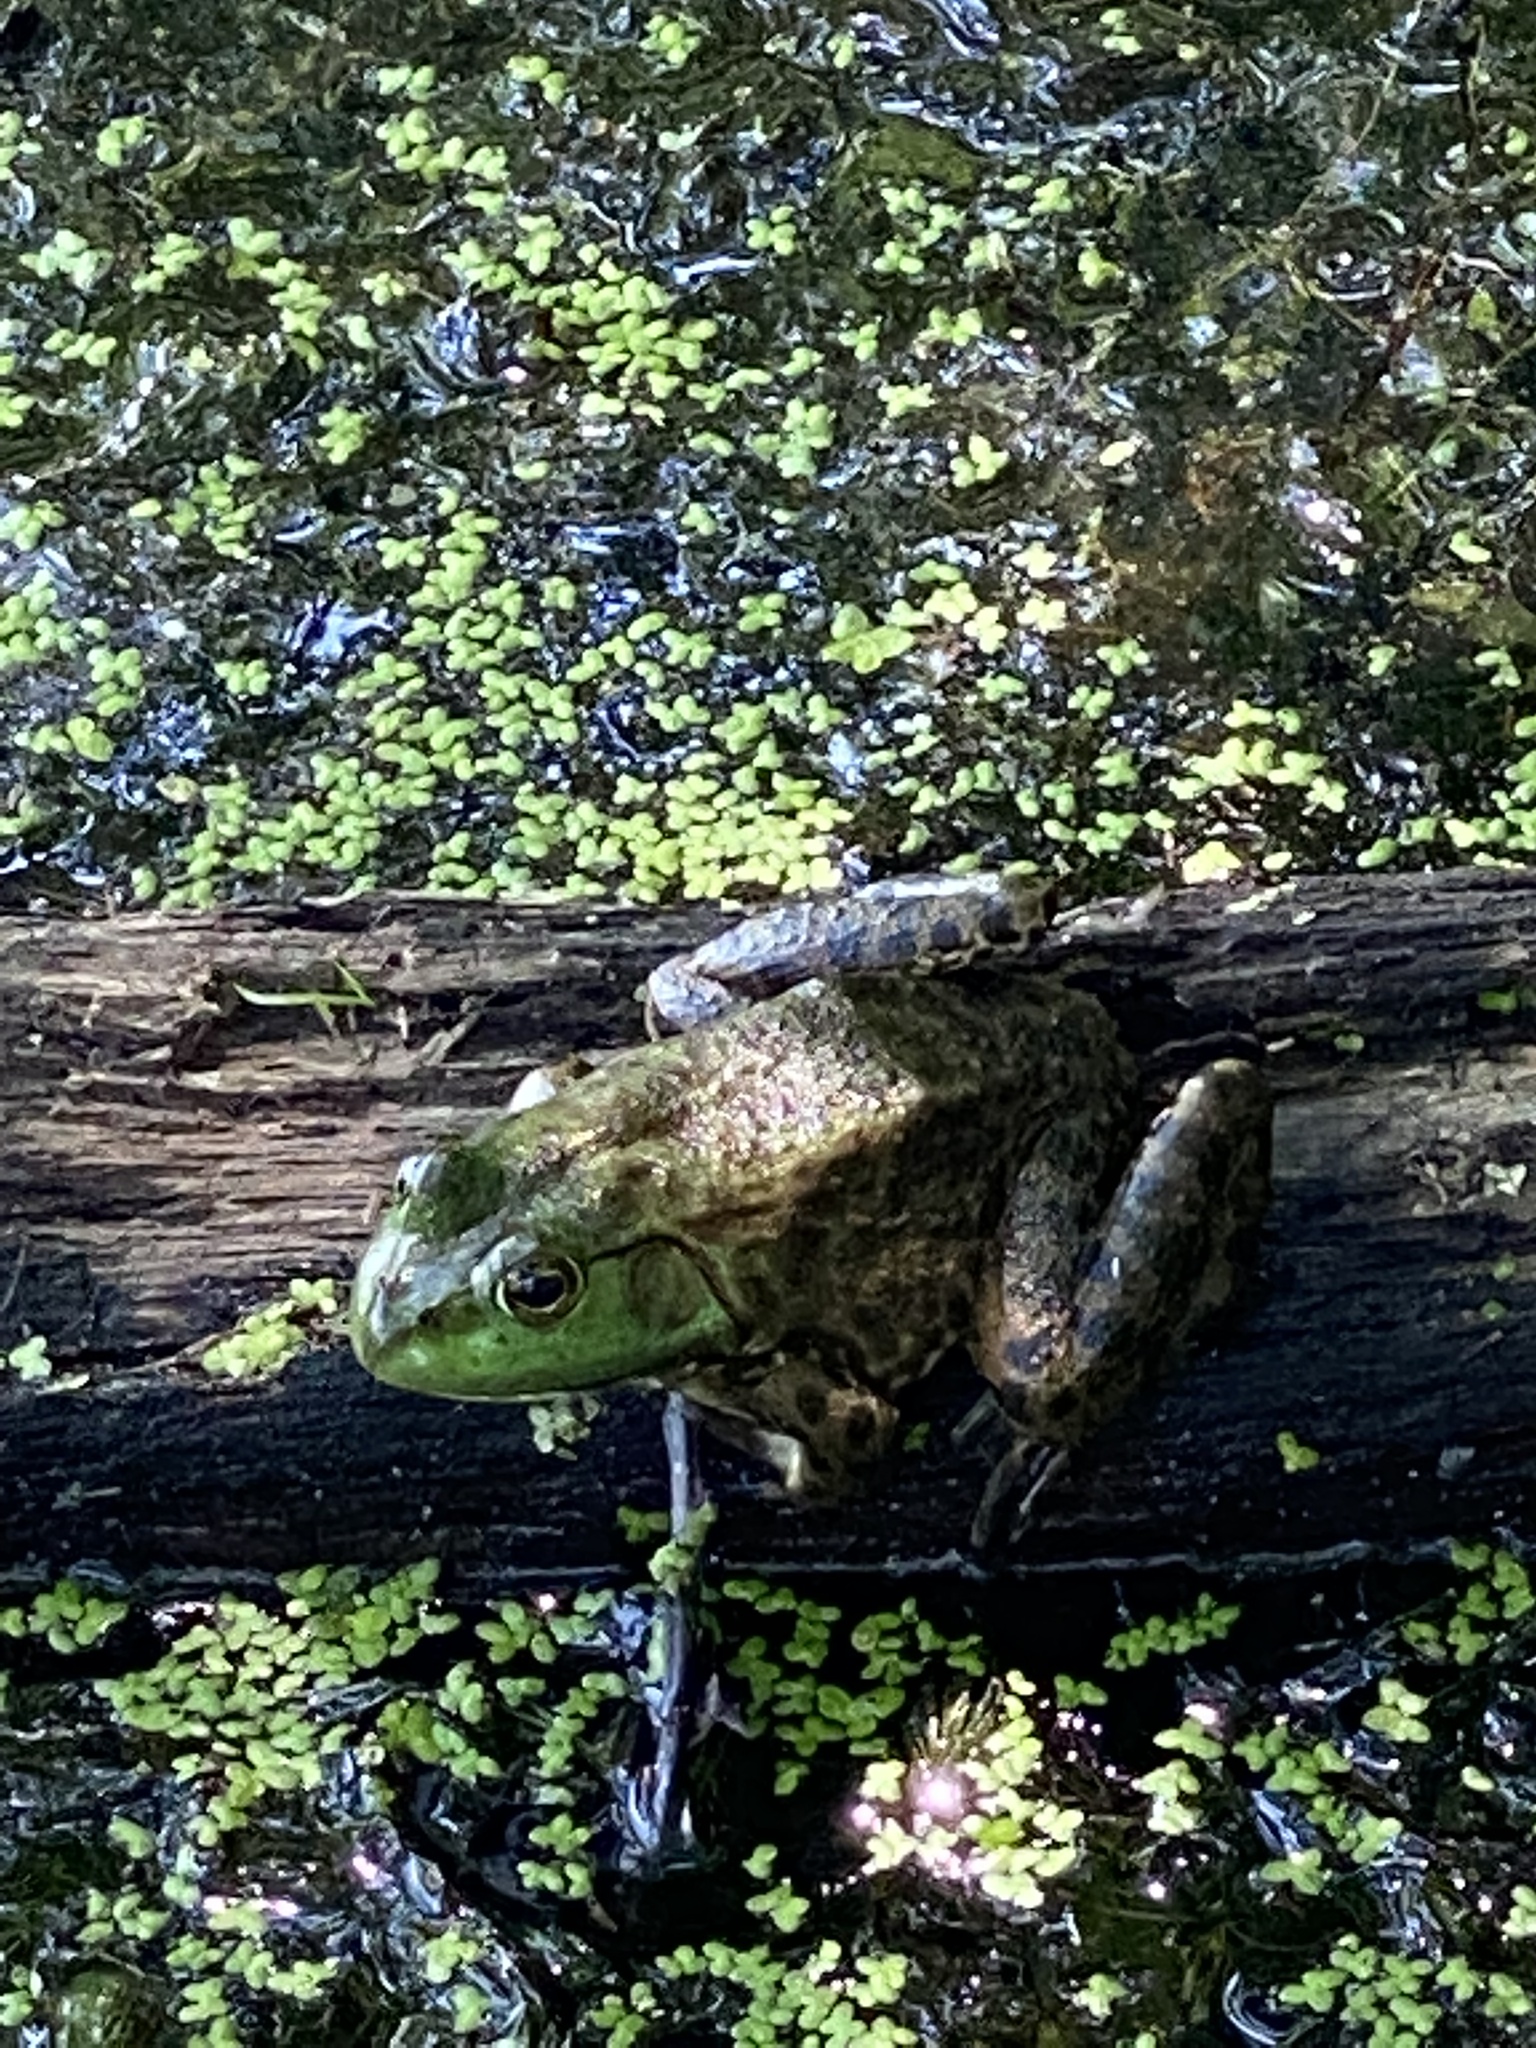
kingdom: Animalia
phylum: Chordata
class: Amphibia
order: Anura
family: Ranidae
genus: Lithobates
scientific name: Lithobates catesbeianus
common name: American bullfrog
